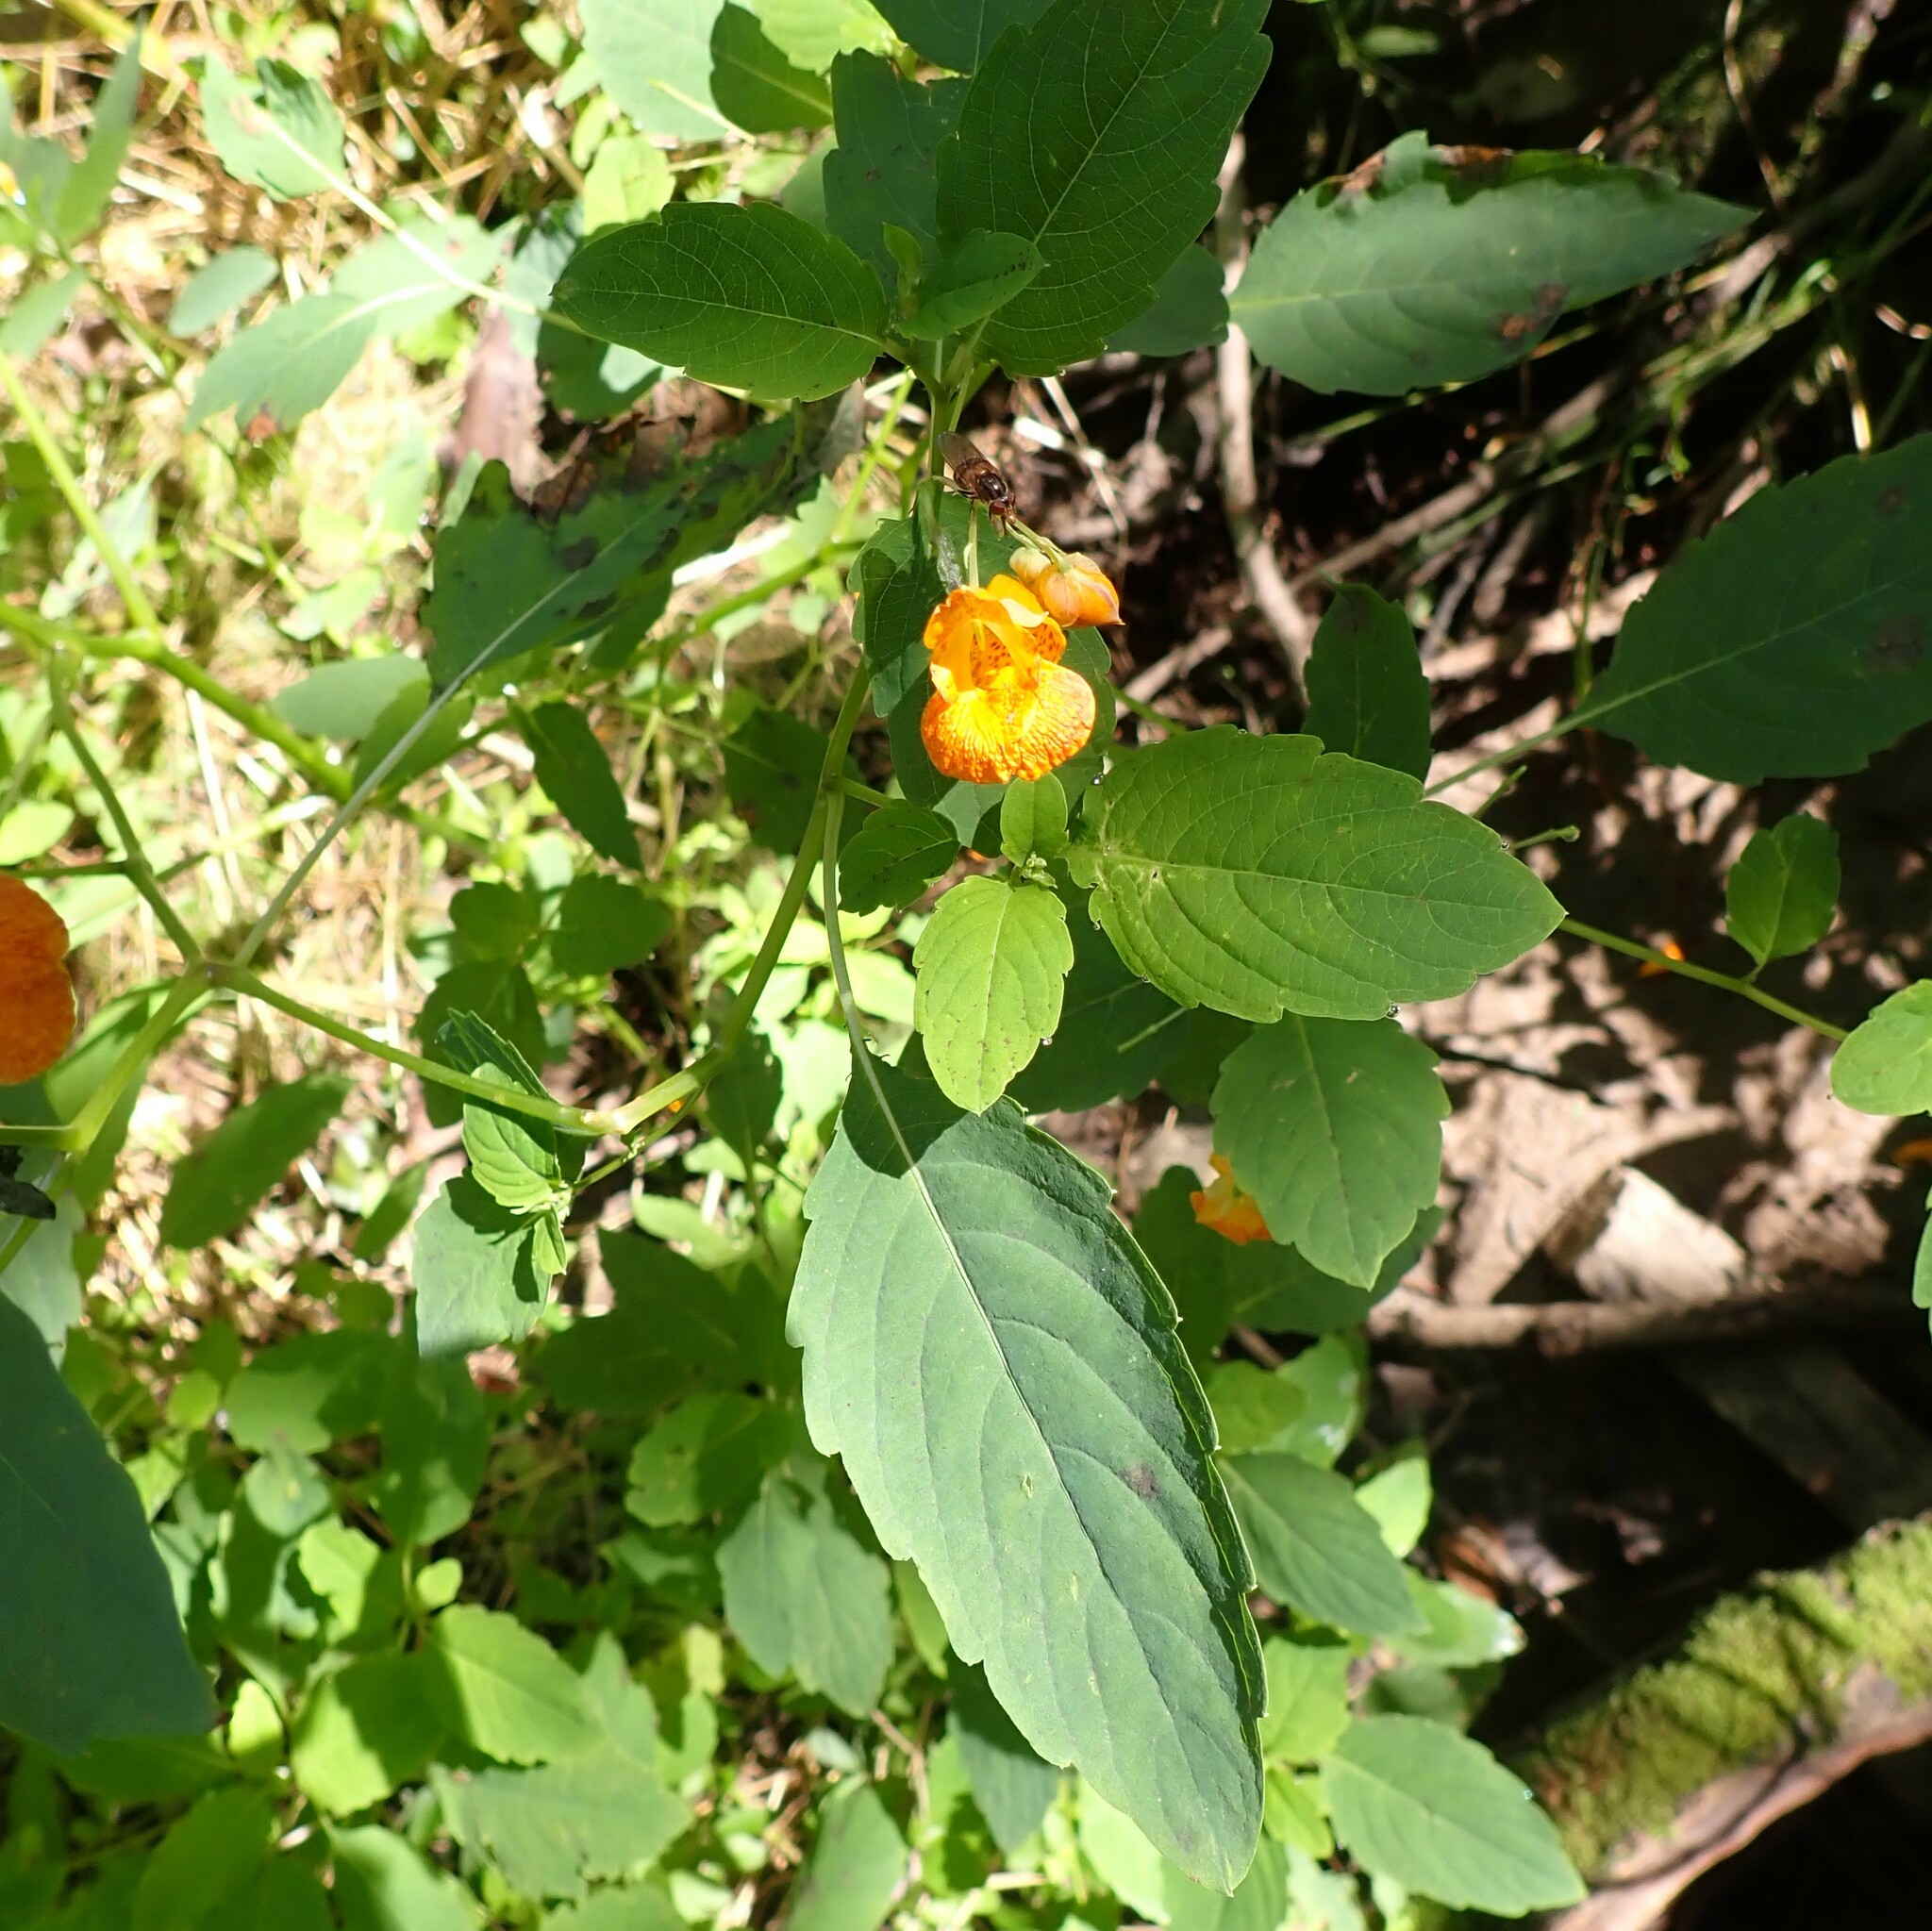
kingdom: Plantae
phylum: Tracheophyta
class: Magnoliopsida
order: Ericales
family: Balsaminaceae
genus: Impatiens
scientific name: Impatiens capensis
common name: Orange balsam
